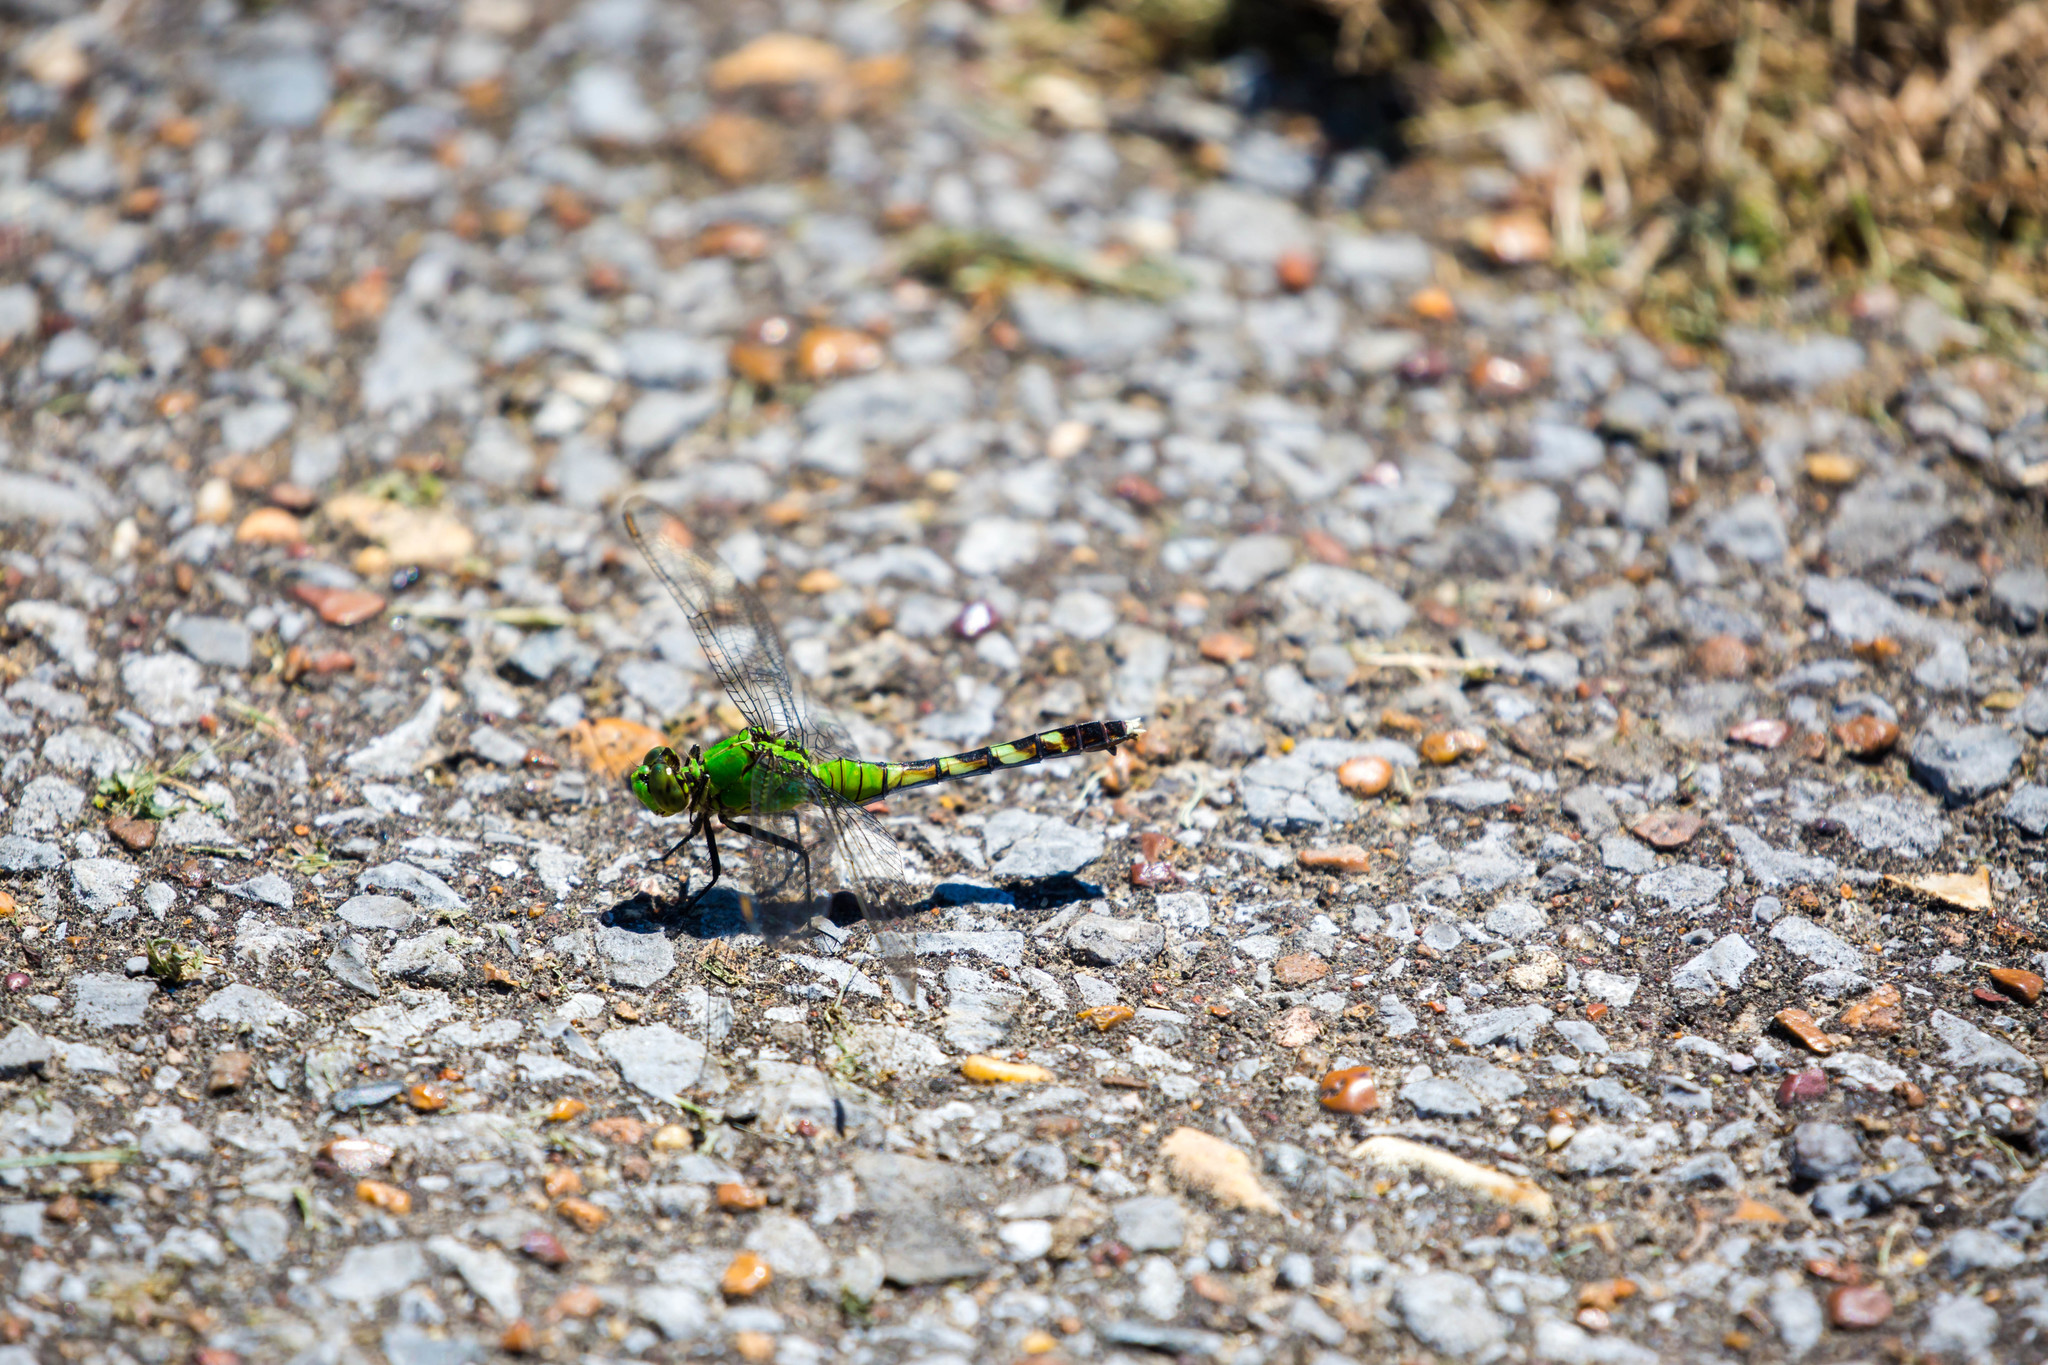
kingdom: Animalia
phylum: Arthropoda
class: Insecta
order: Odonata
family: Libellulidae
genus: Erythemis
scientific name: Erythemis simplicicollis
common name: Eastern pondhawk
